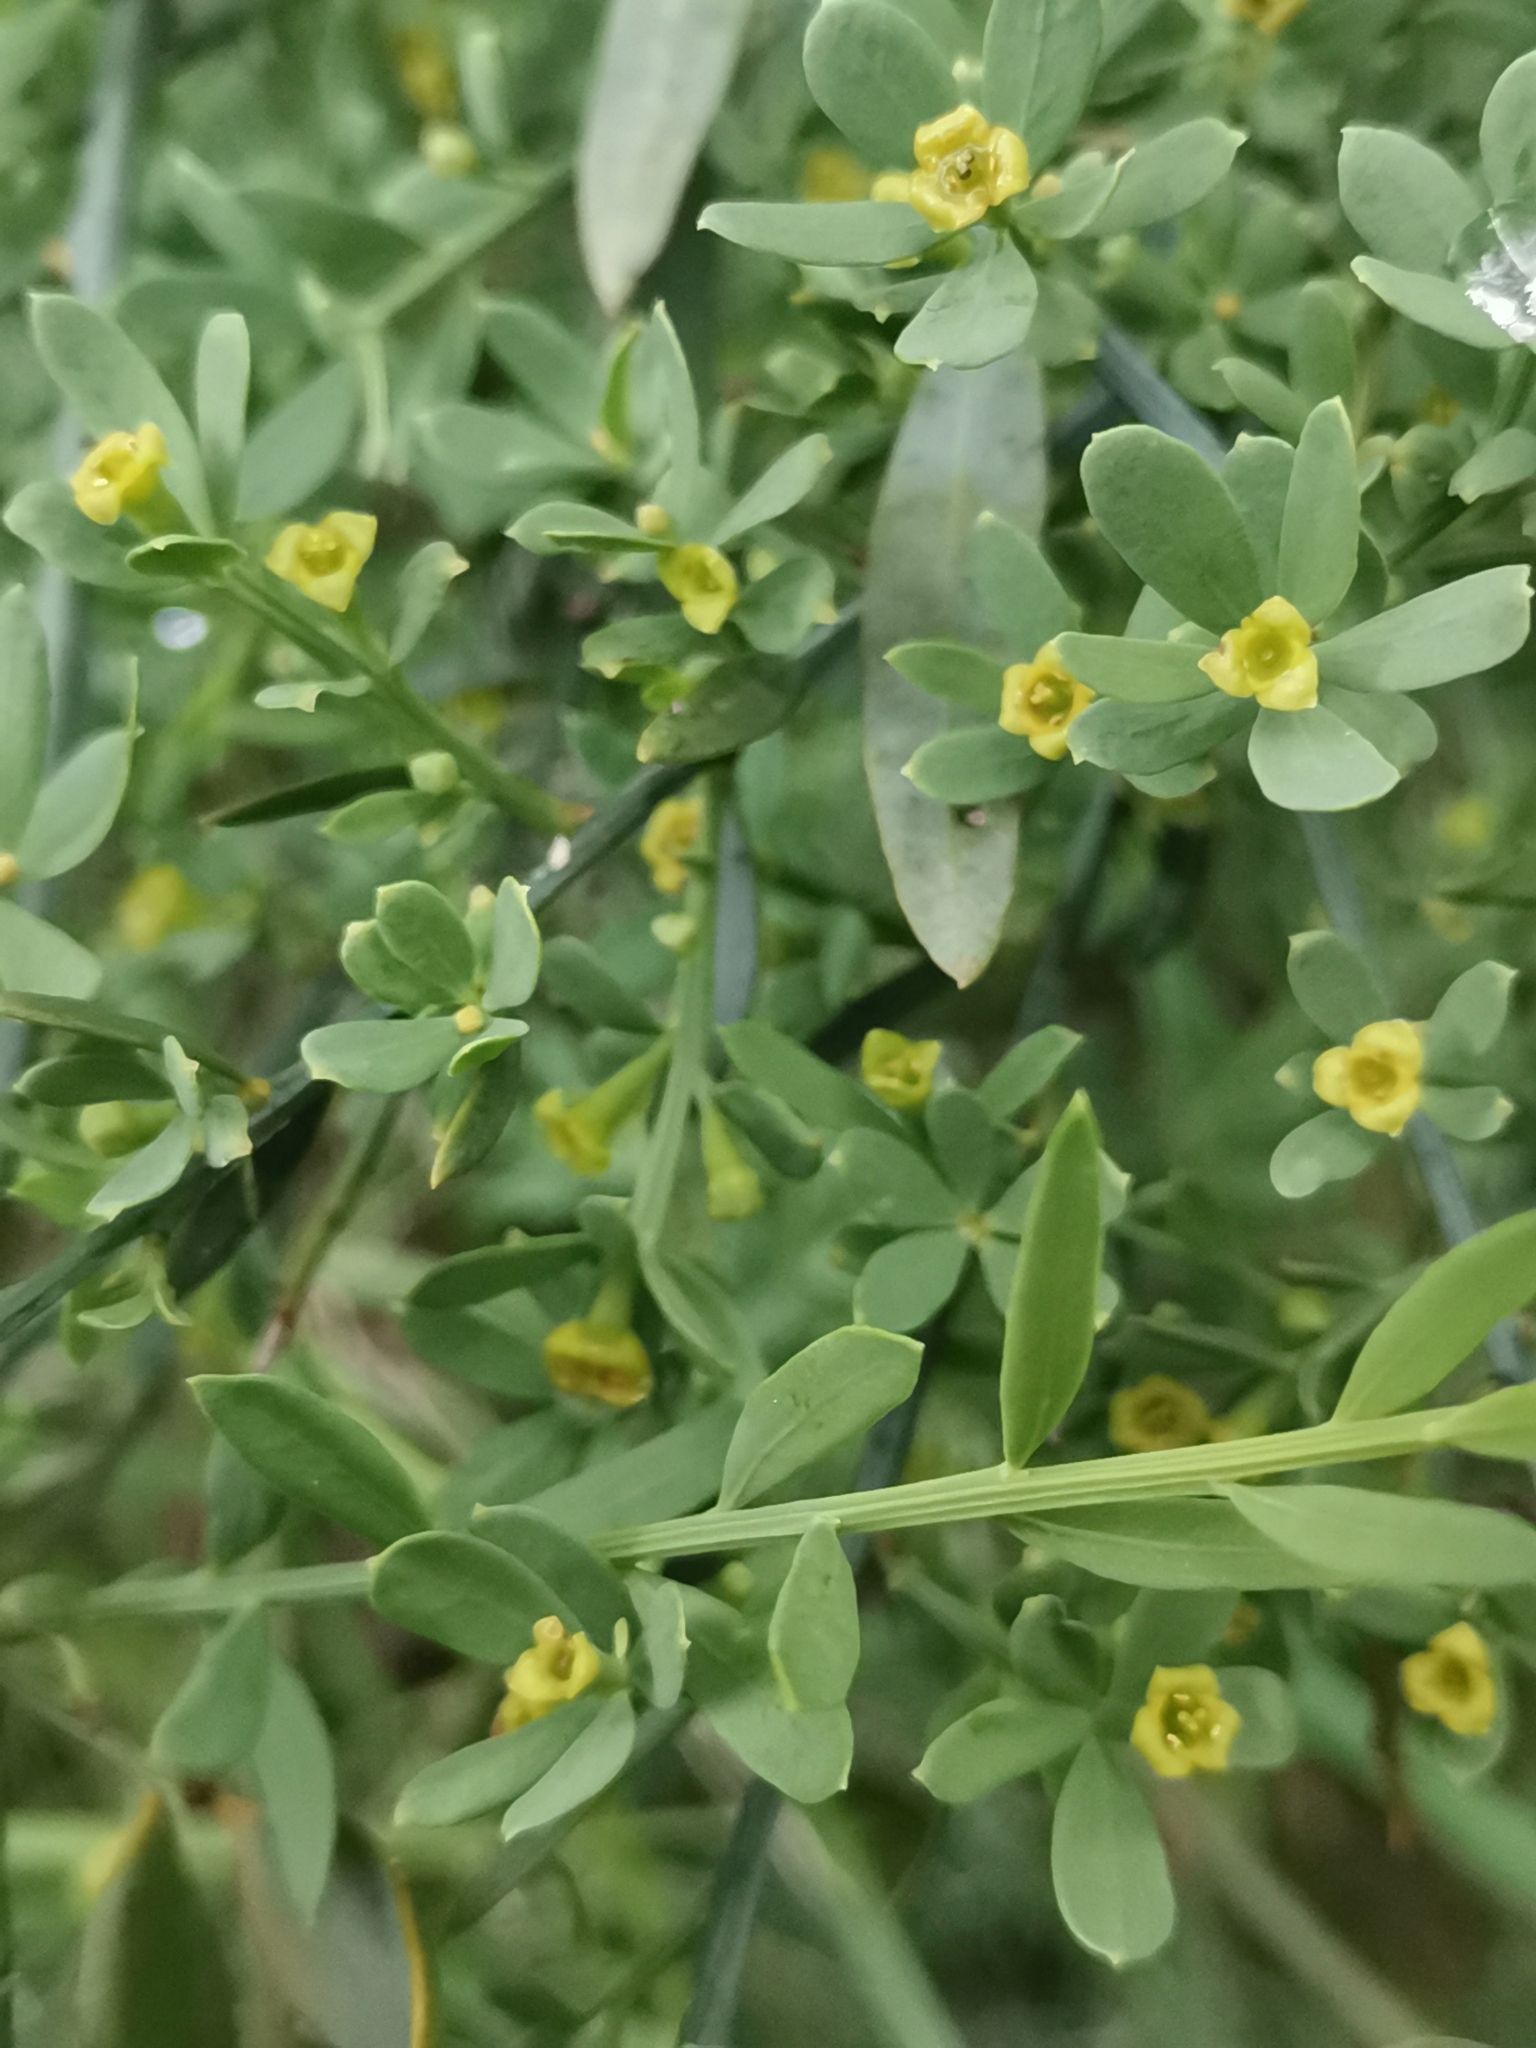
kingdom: Plantae
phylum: Tracheophyta
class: Magnoliopsida
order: Santalales
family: Santalaceae
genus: Osyris
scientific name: Osyris alba
